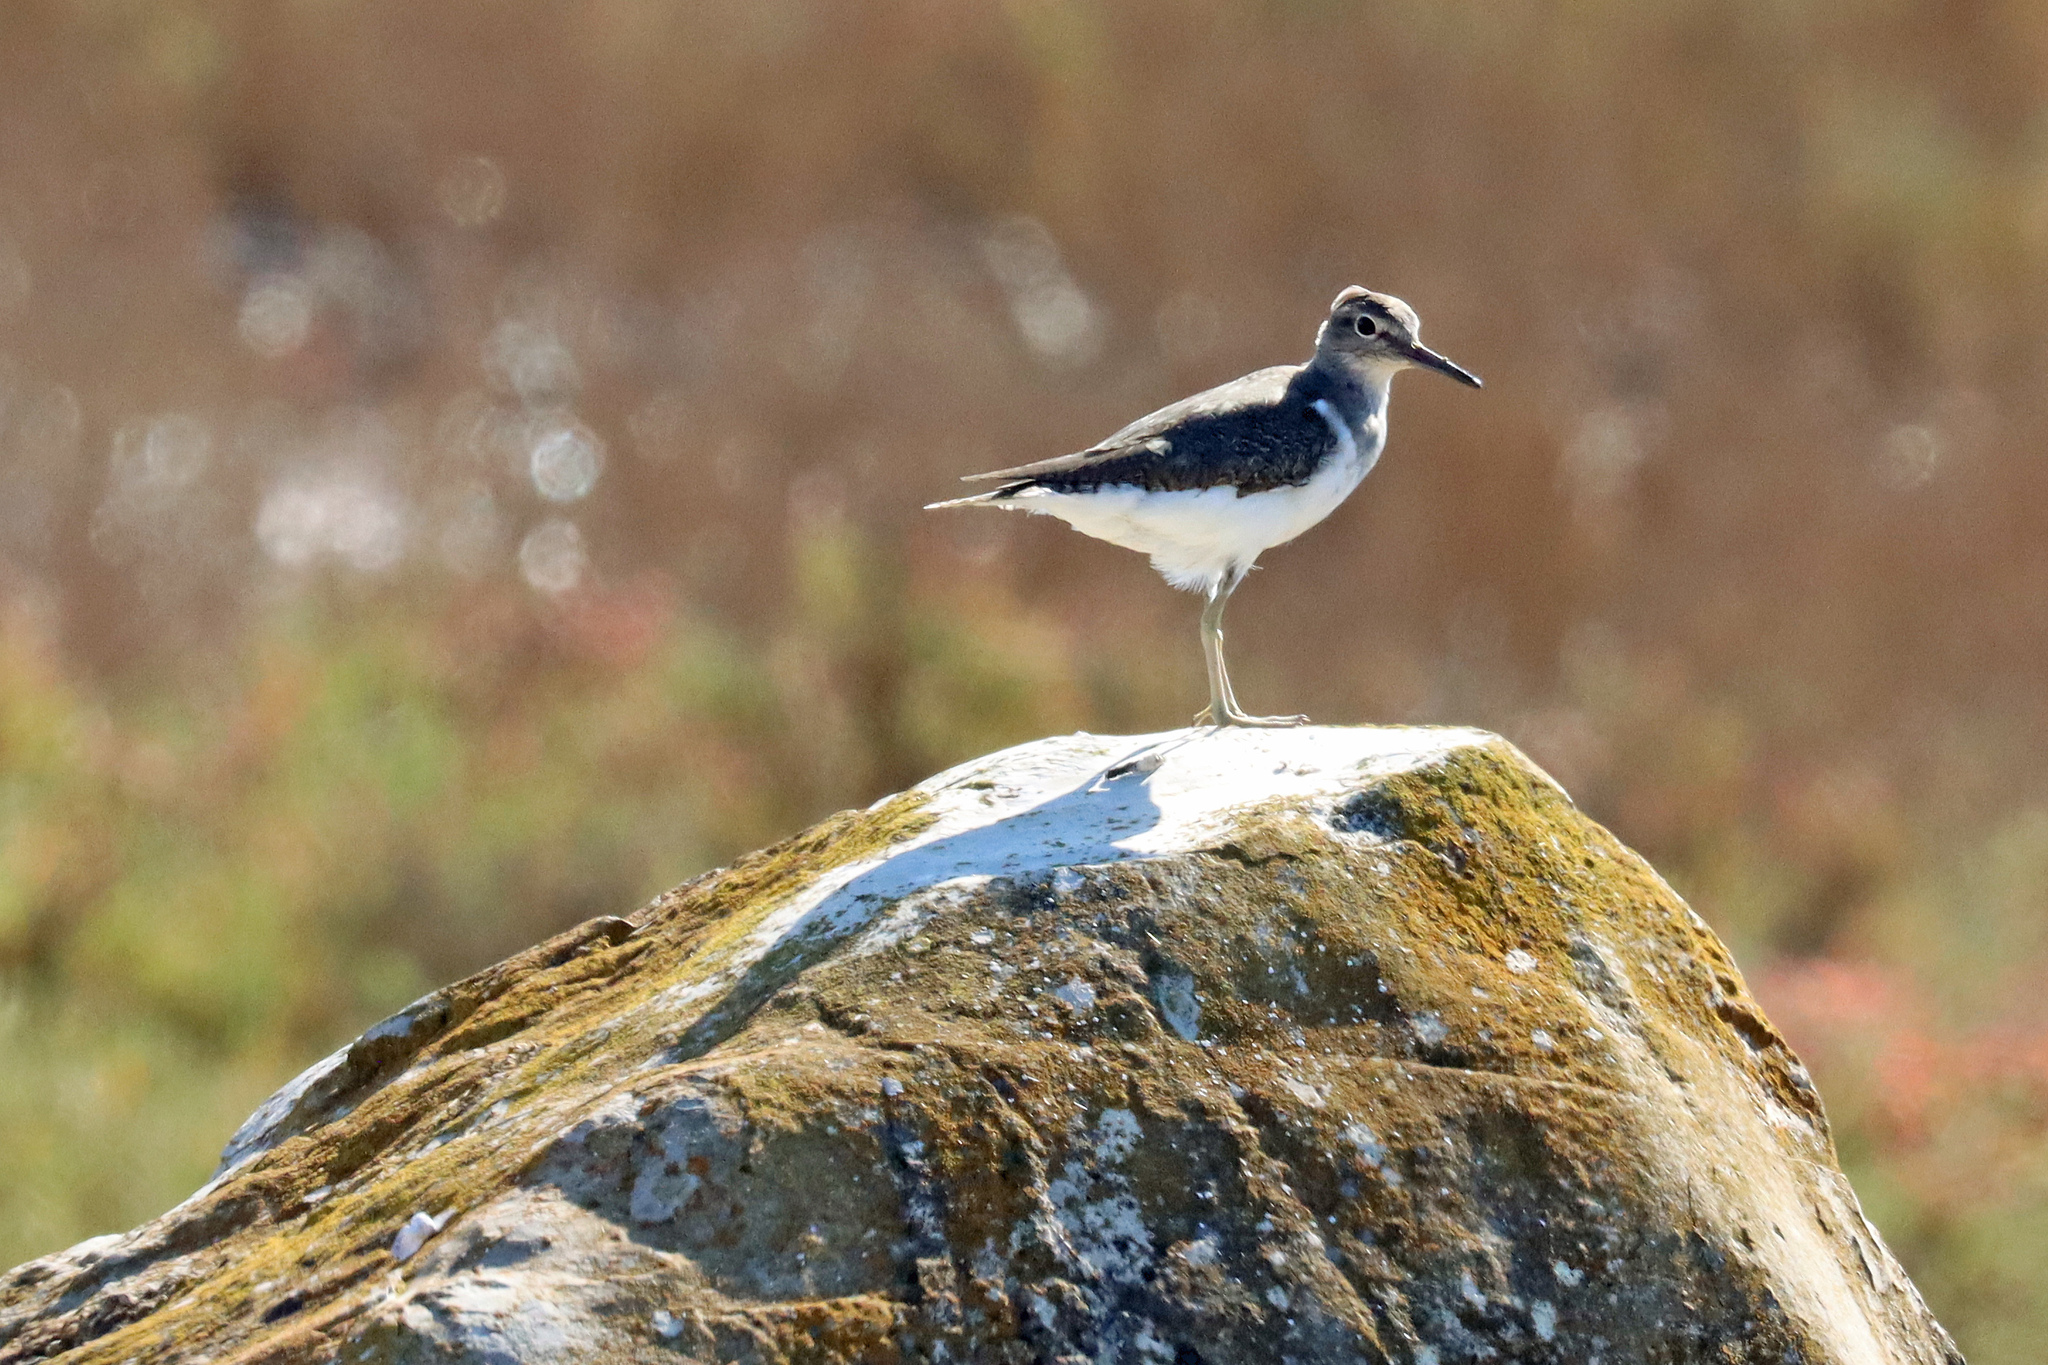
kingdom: Animalia
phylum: Chordata
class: Aves
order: Charadriiformes
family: Scolopacidae
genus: Actitis
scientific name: Actitis hypoleucos
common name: Common sandpiper
